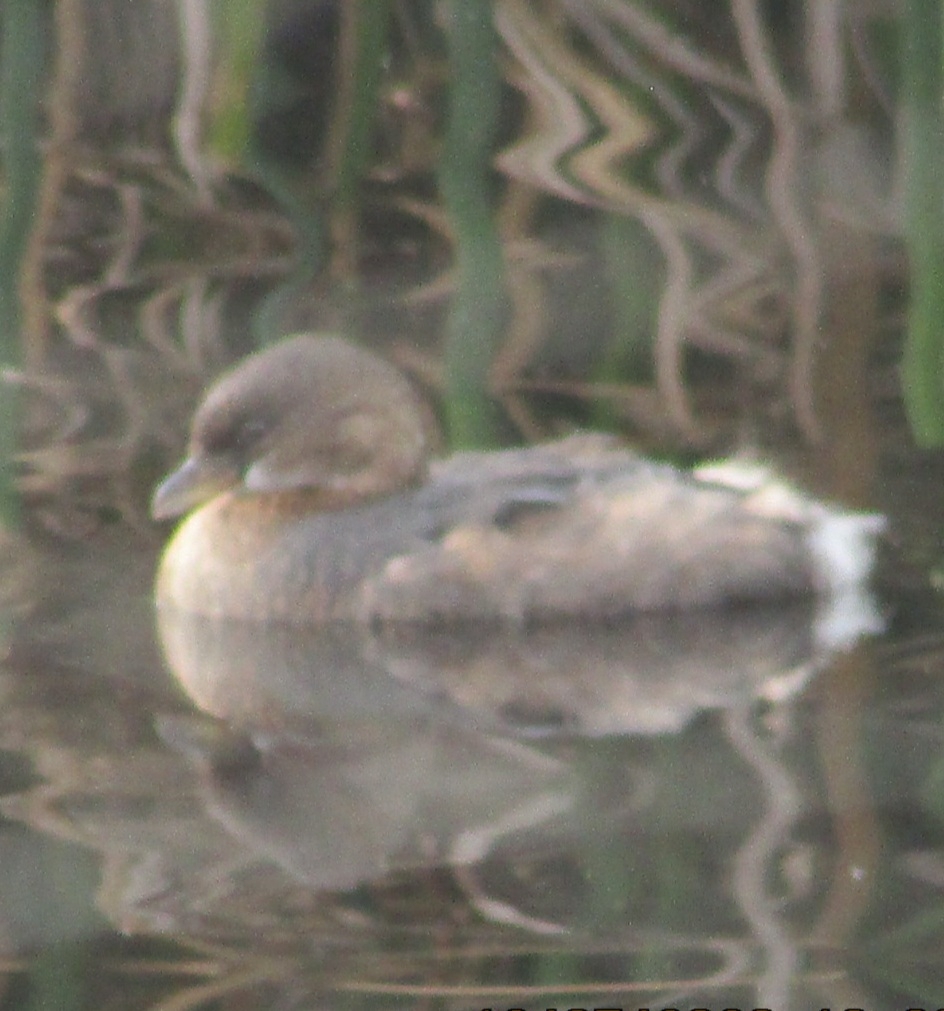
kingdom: Animalia
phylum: Chordata
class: Aves
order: Podicipediformes
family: Podicipedidae
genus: Podilymbus
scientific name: Podilymbus podiceps
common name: Pied-billed grebe
